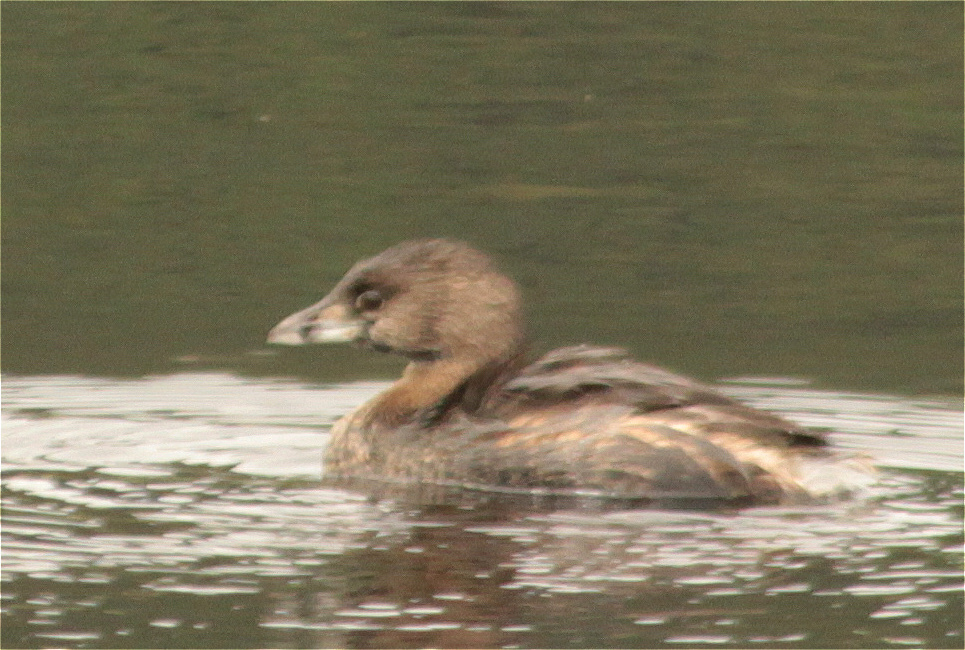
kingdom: Animalia
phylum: Chordata
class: Aves
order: Podicipediformes
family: Podicipedidae
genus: Podilymbus
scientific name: Podilymbus podiceps
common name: Pied-billed grebe
